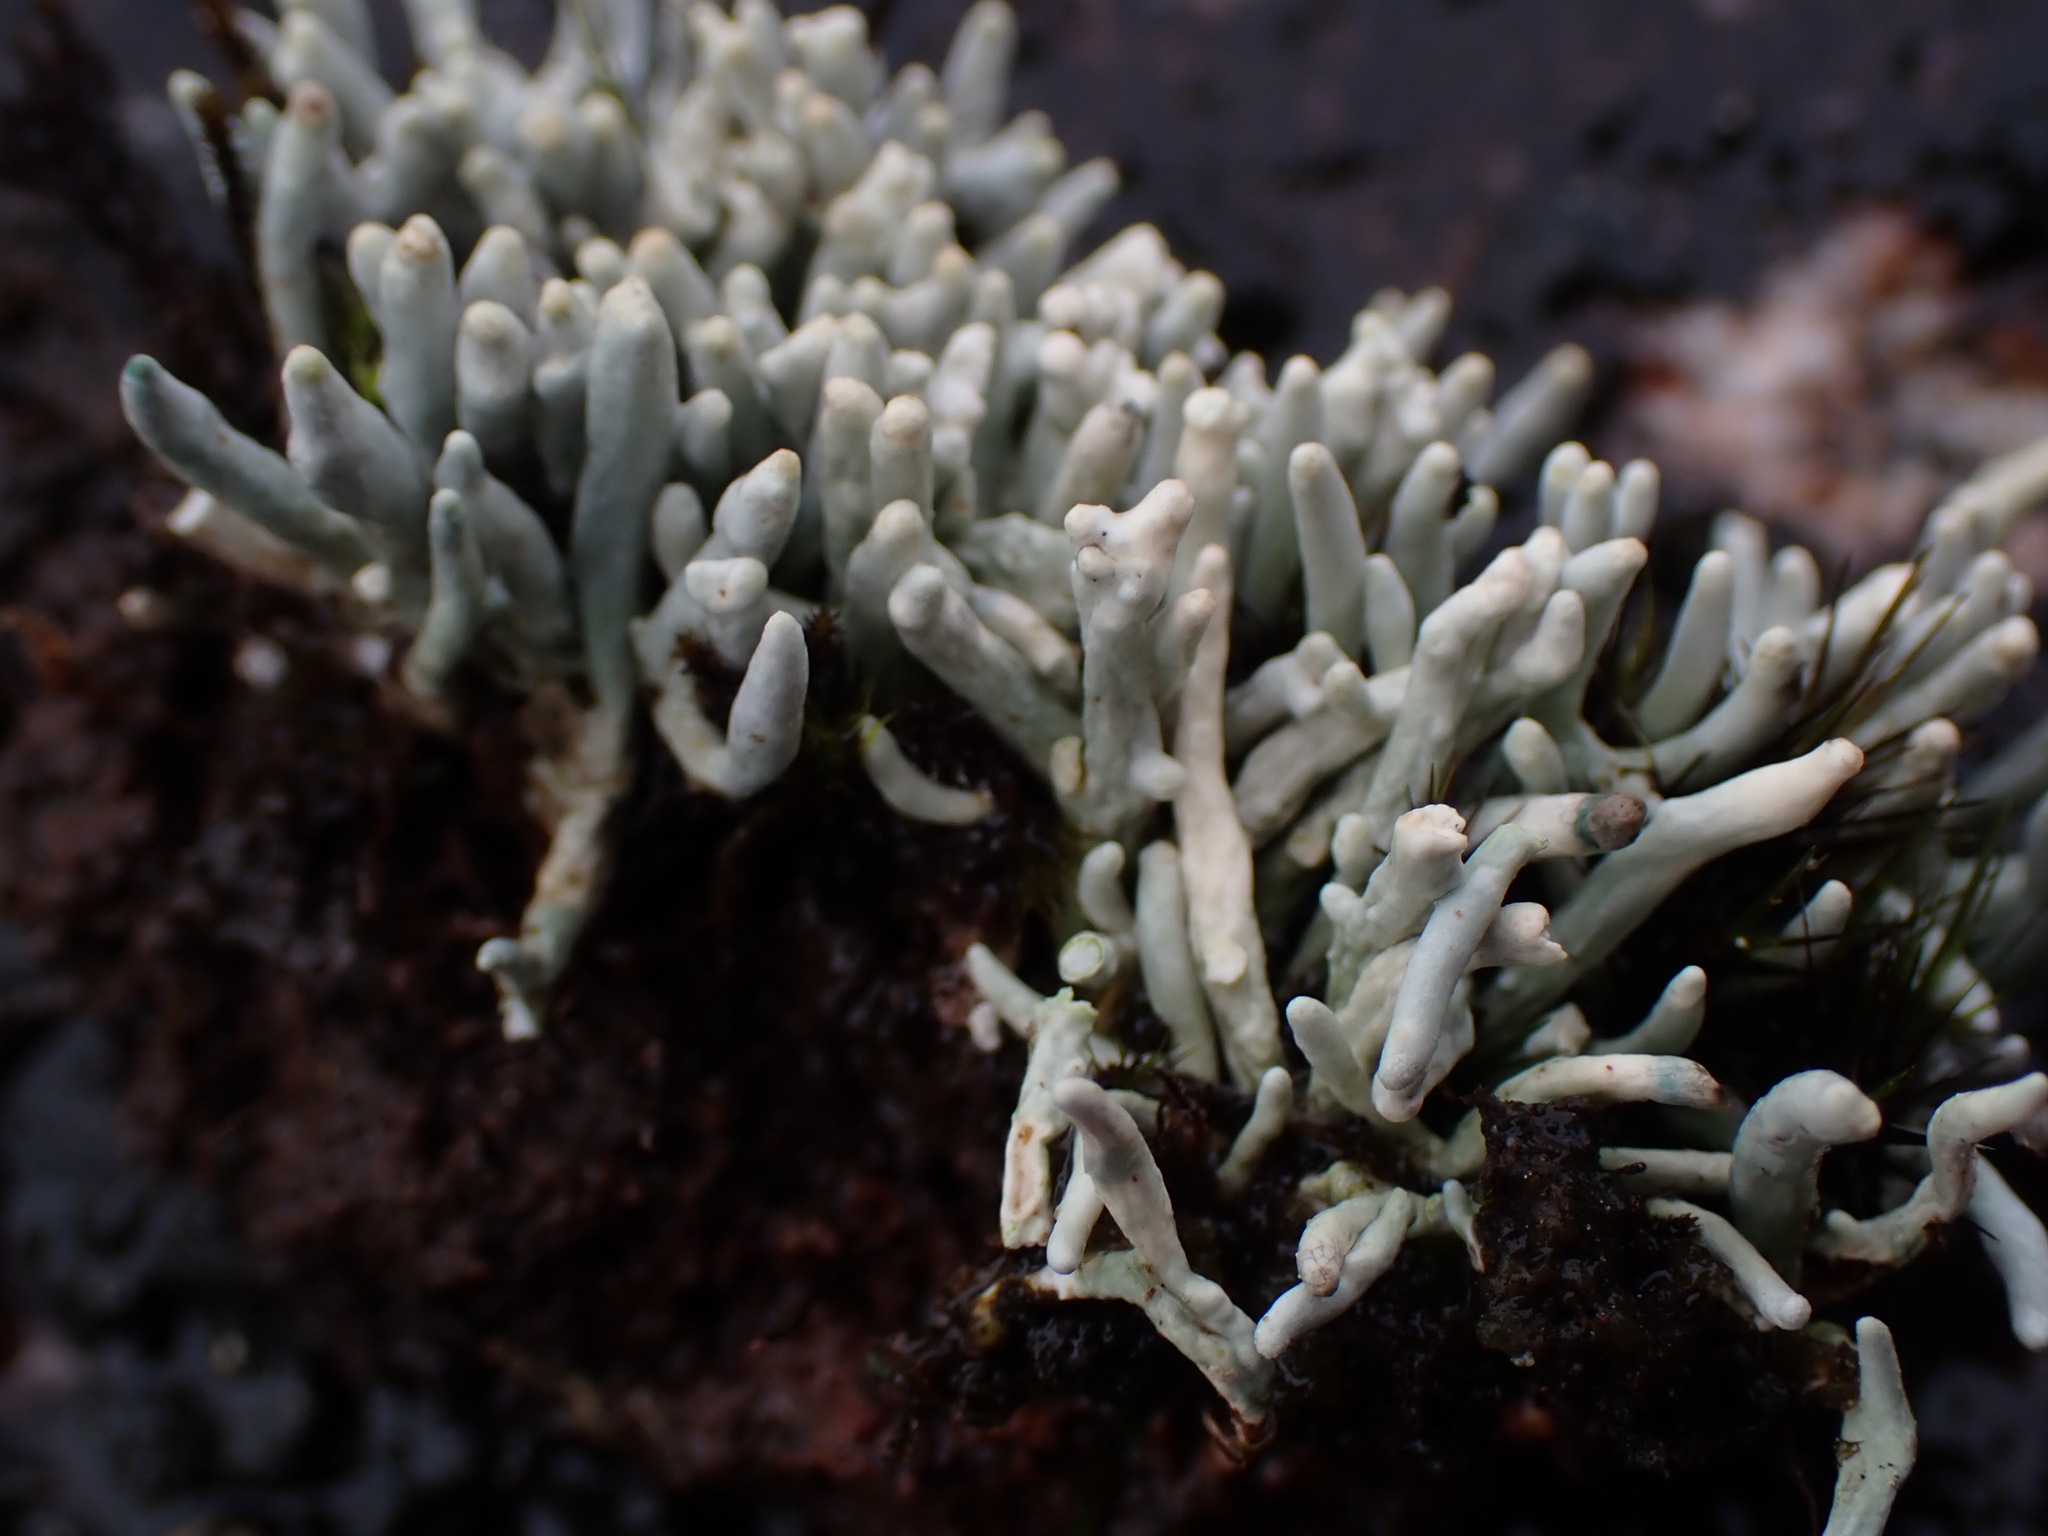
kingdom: Fungi
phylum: Ascomycota
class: Lecanoromycetes
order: Pertusariales
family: Icmadophilaceae
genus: Siphula
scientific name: Siphula ceratites
